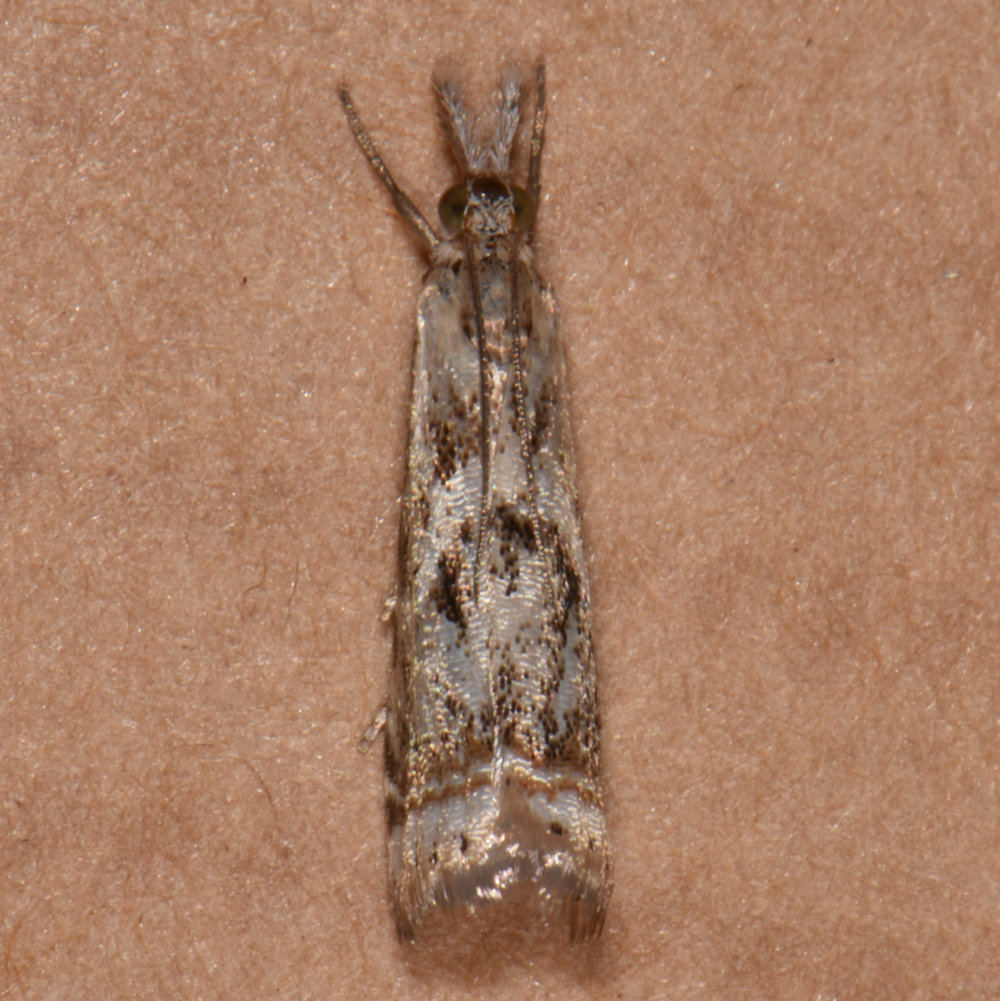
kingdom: Animalia
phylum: Arthropoda
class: Insecta
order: Lepidoptera
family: Crambidae
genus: Microcrambus
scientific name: Microcrambus elegans
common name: Elegant grass-veneer
